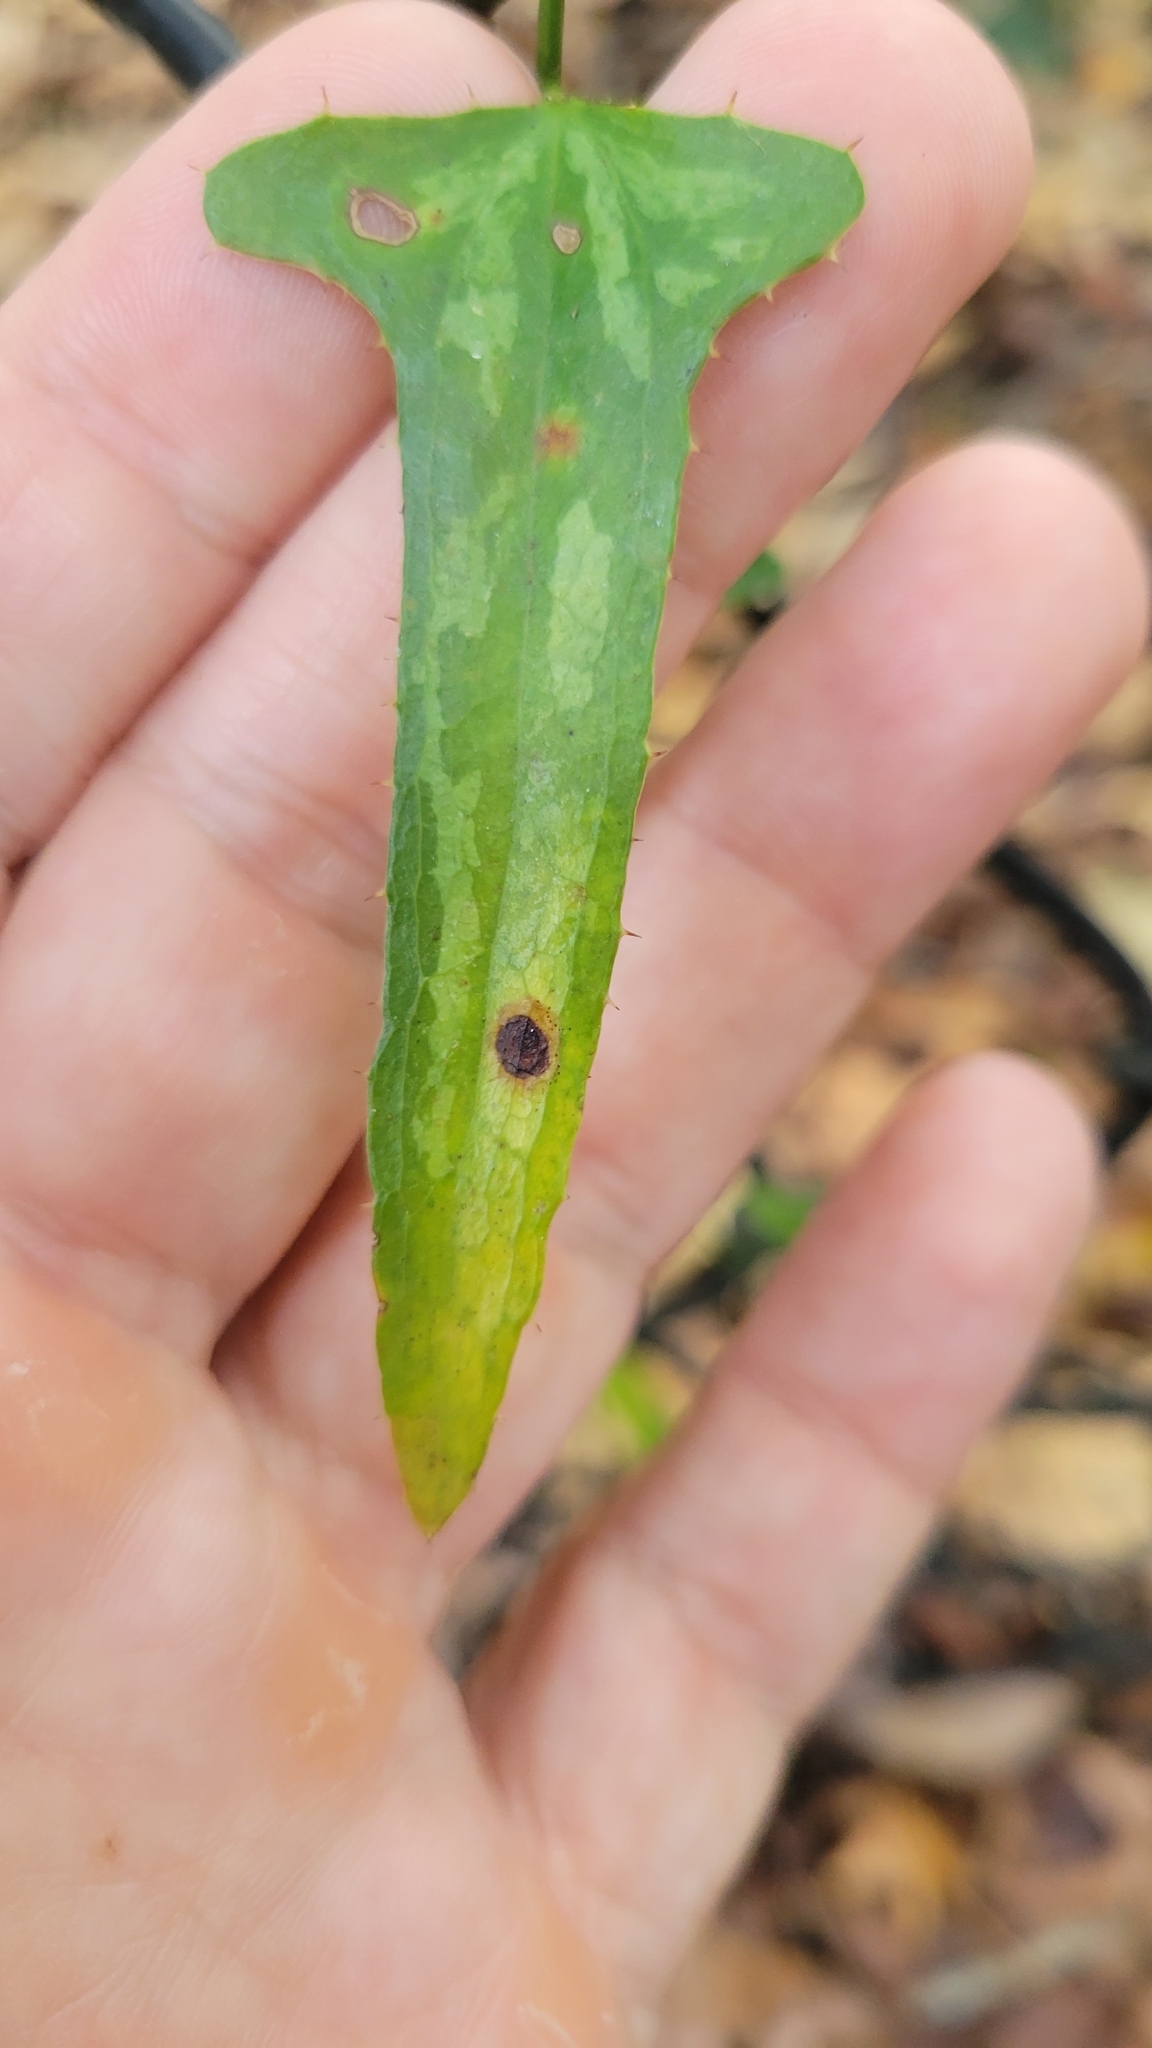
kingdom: Plantae
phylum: Tracheophyta
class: Liliopsida
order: Liliales
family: Smilacaceae
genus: Smilax
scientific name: Smilax bona-nox
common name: Catbrier
